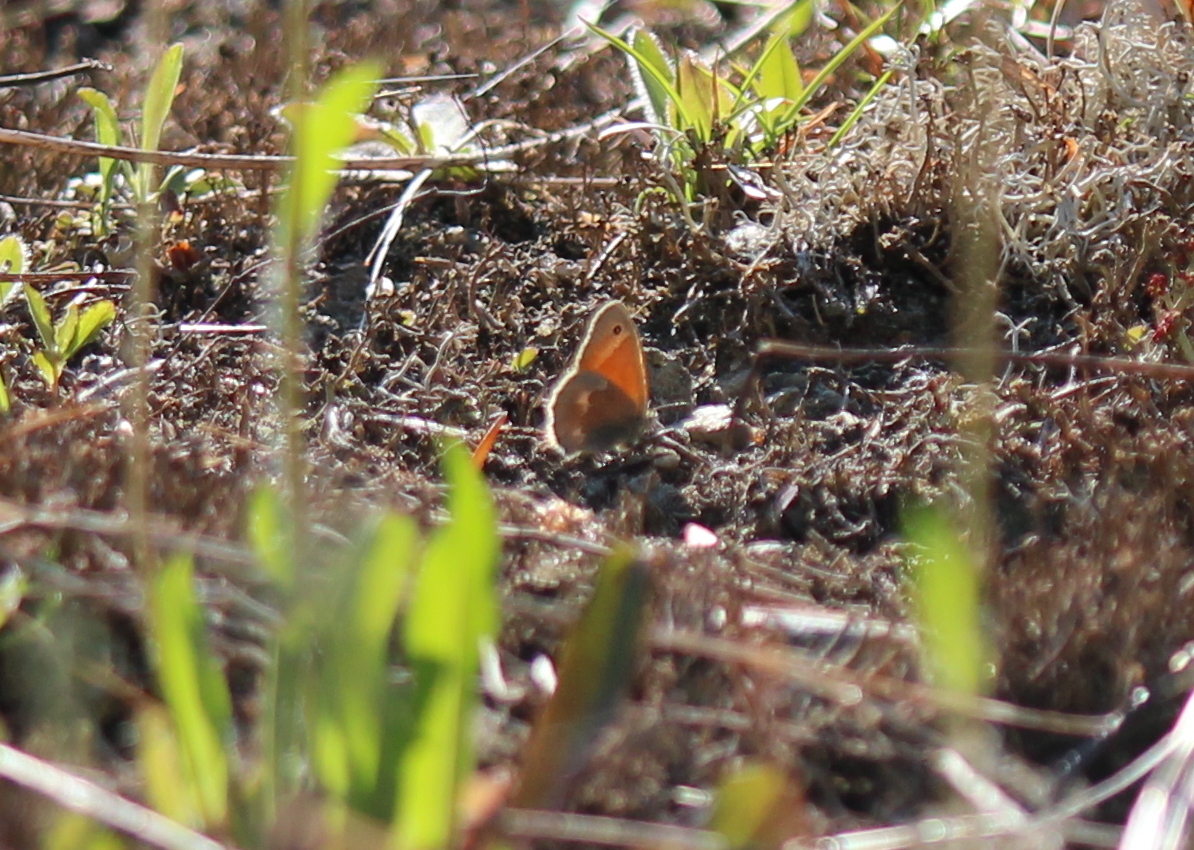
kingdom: Animalia
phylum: Arthropoda
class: Insecta
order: Lepidoptera
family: Nymphalidae
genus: Coenonympha
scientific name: Coenonympha california
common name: Common ringlet
